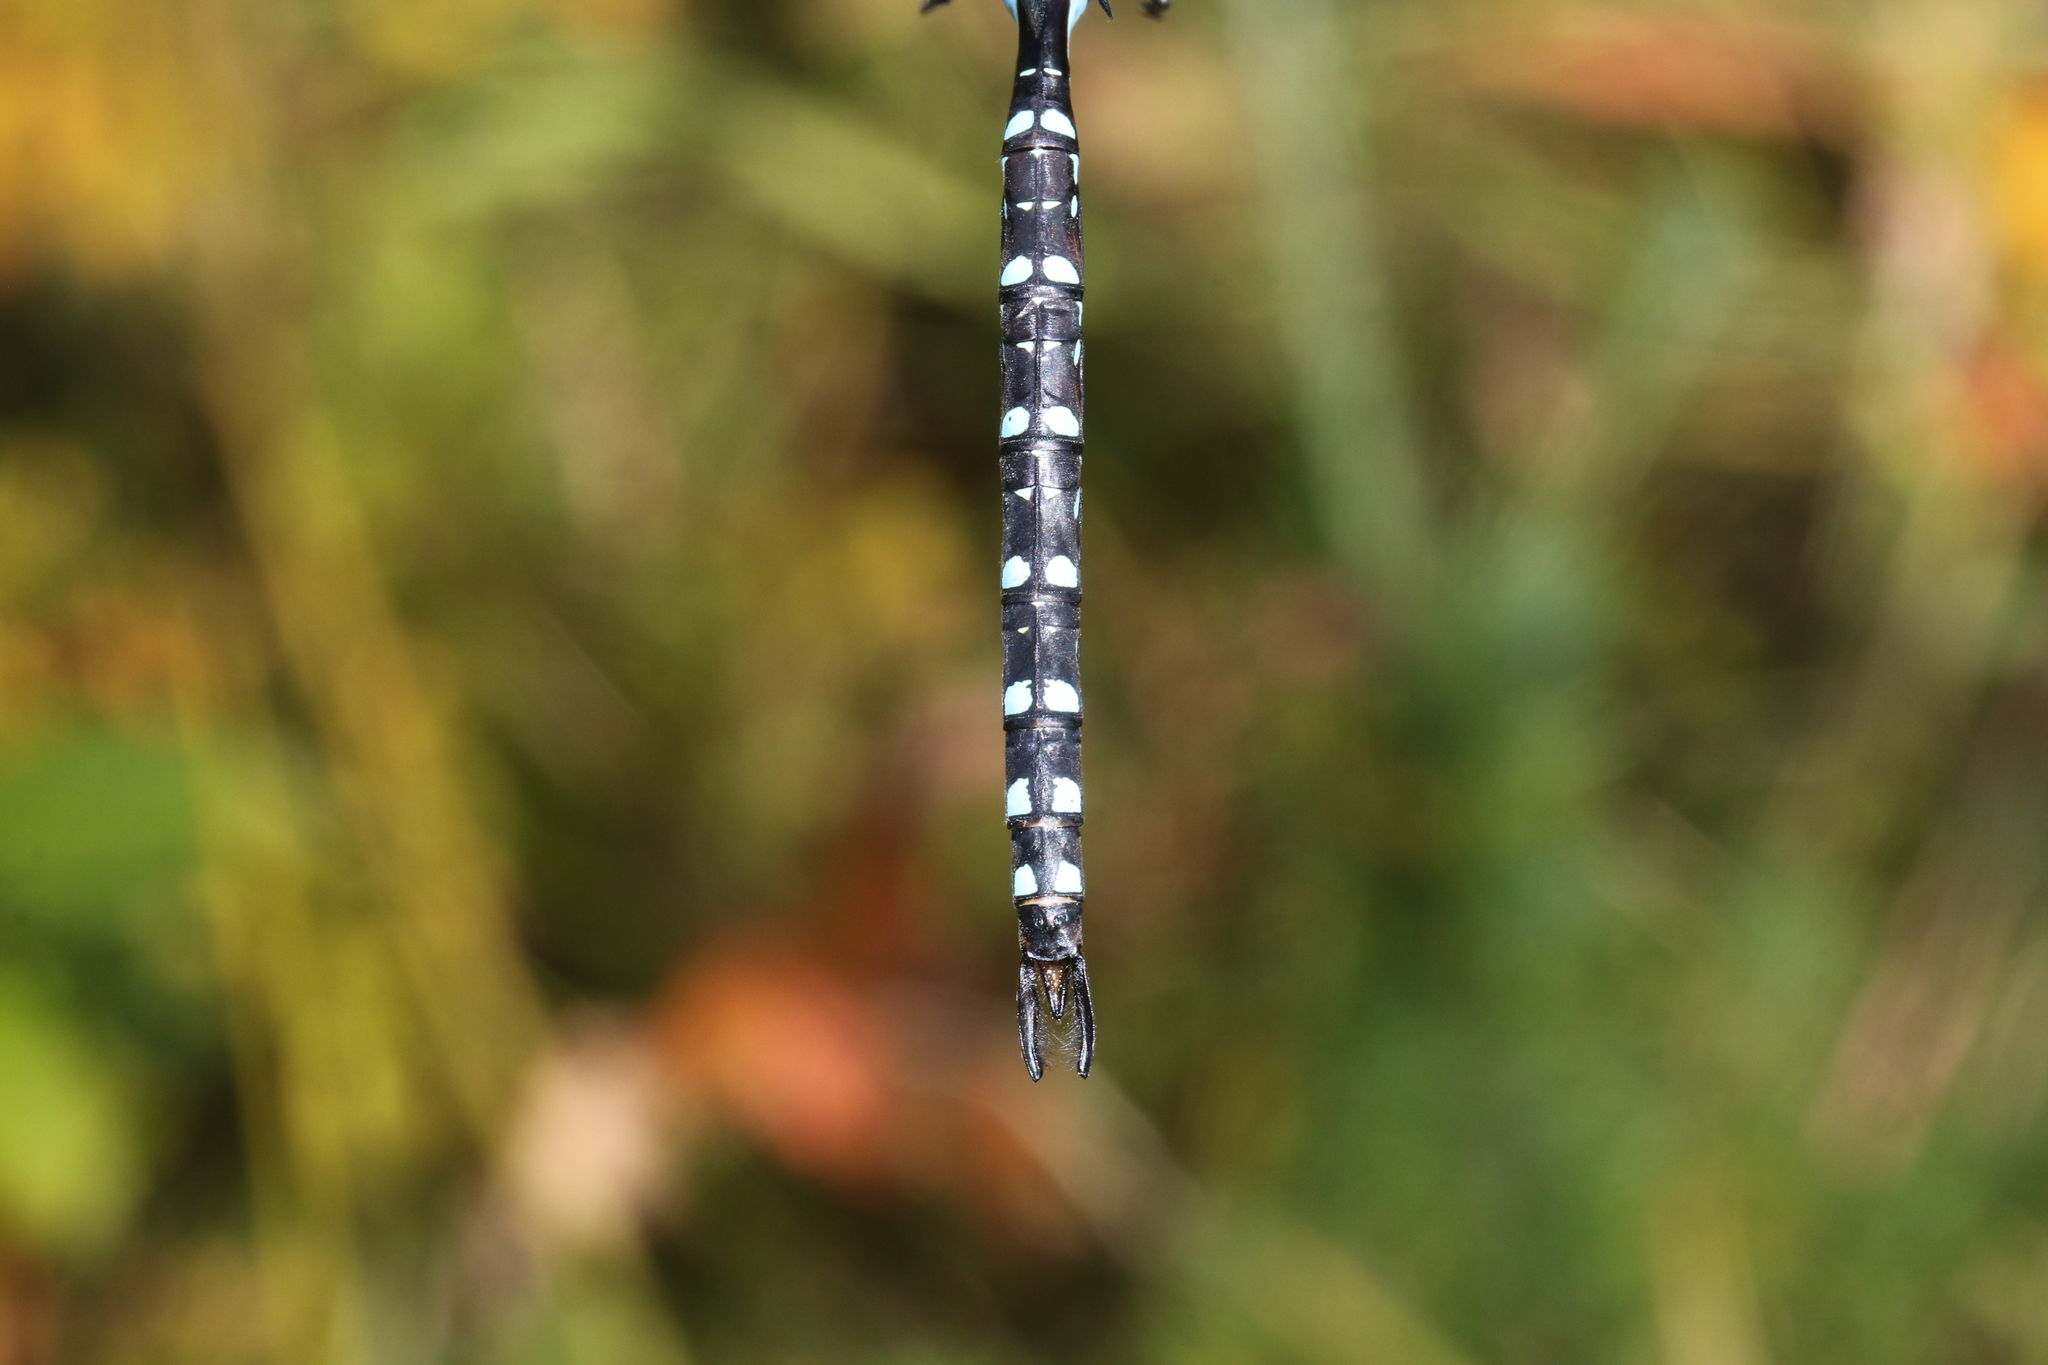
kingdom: Animalia
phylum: Arthropoda
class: Insecta
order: Odonata
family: Aeshnidae
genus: Aeshna
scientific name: Aeshna tuberculifera
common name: Aeschne à tubercules
